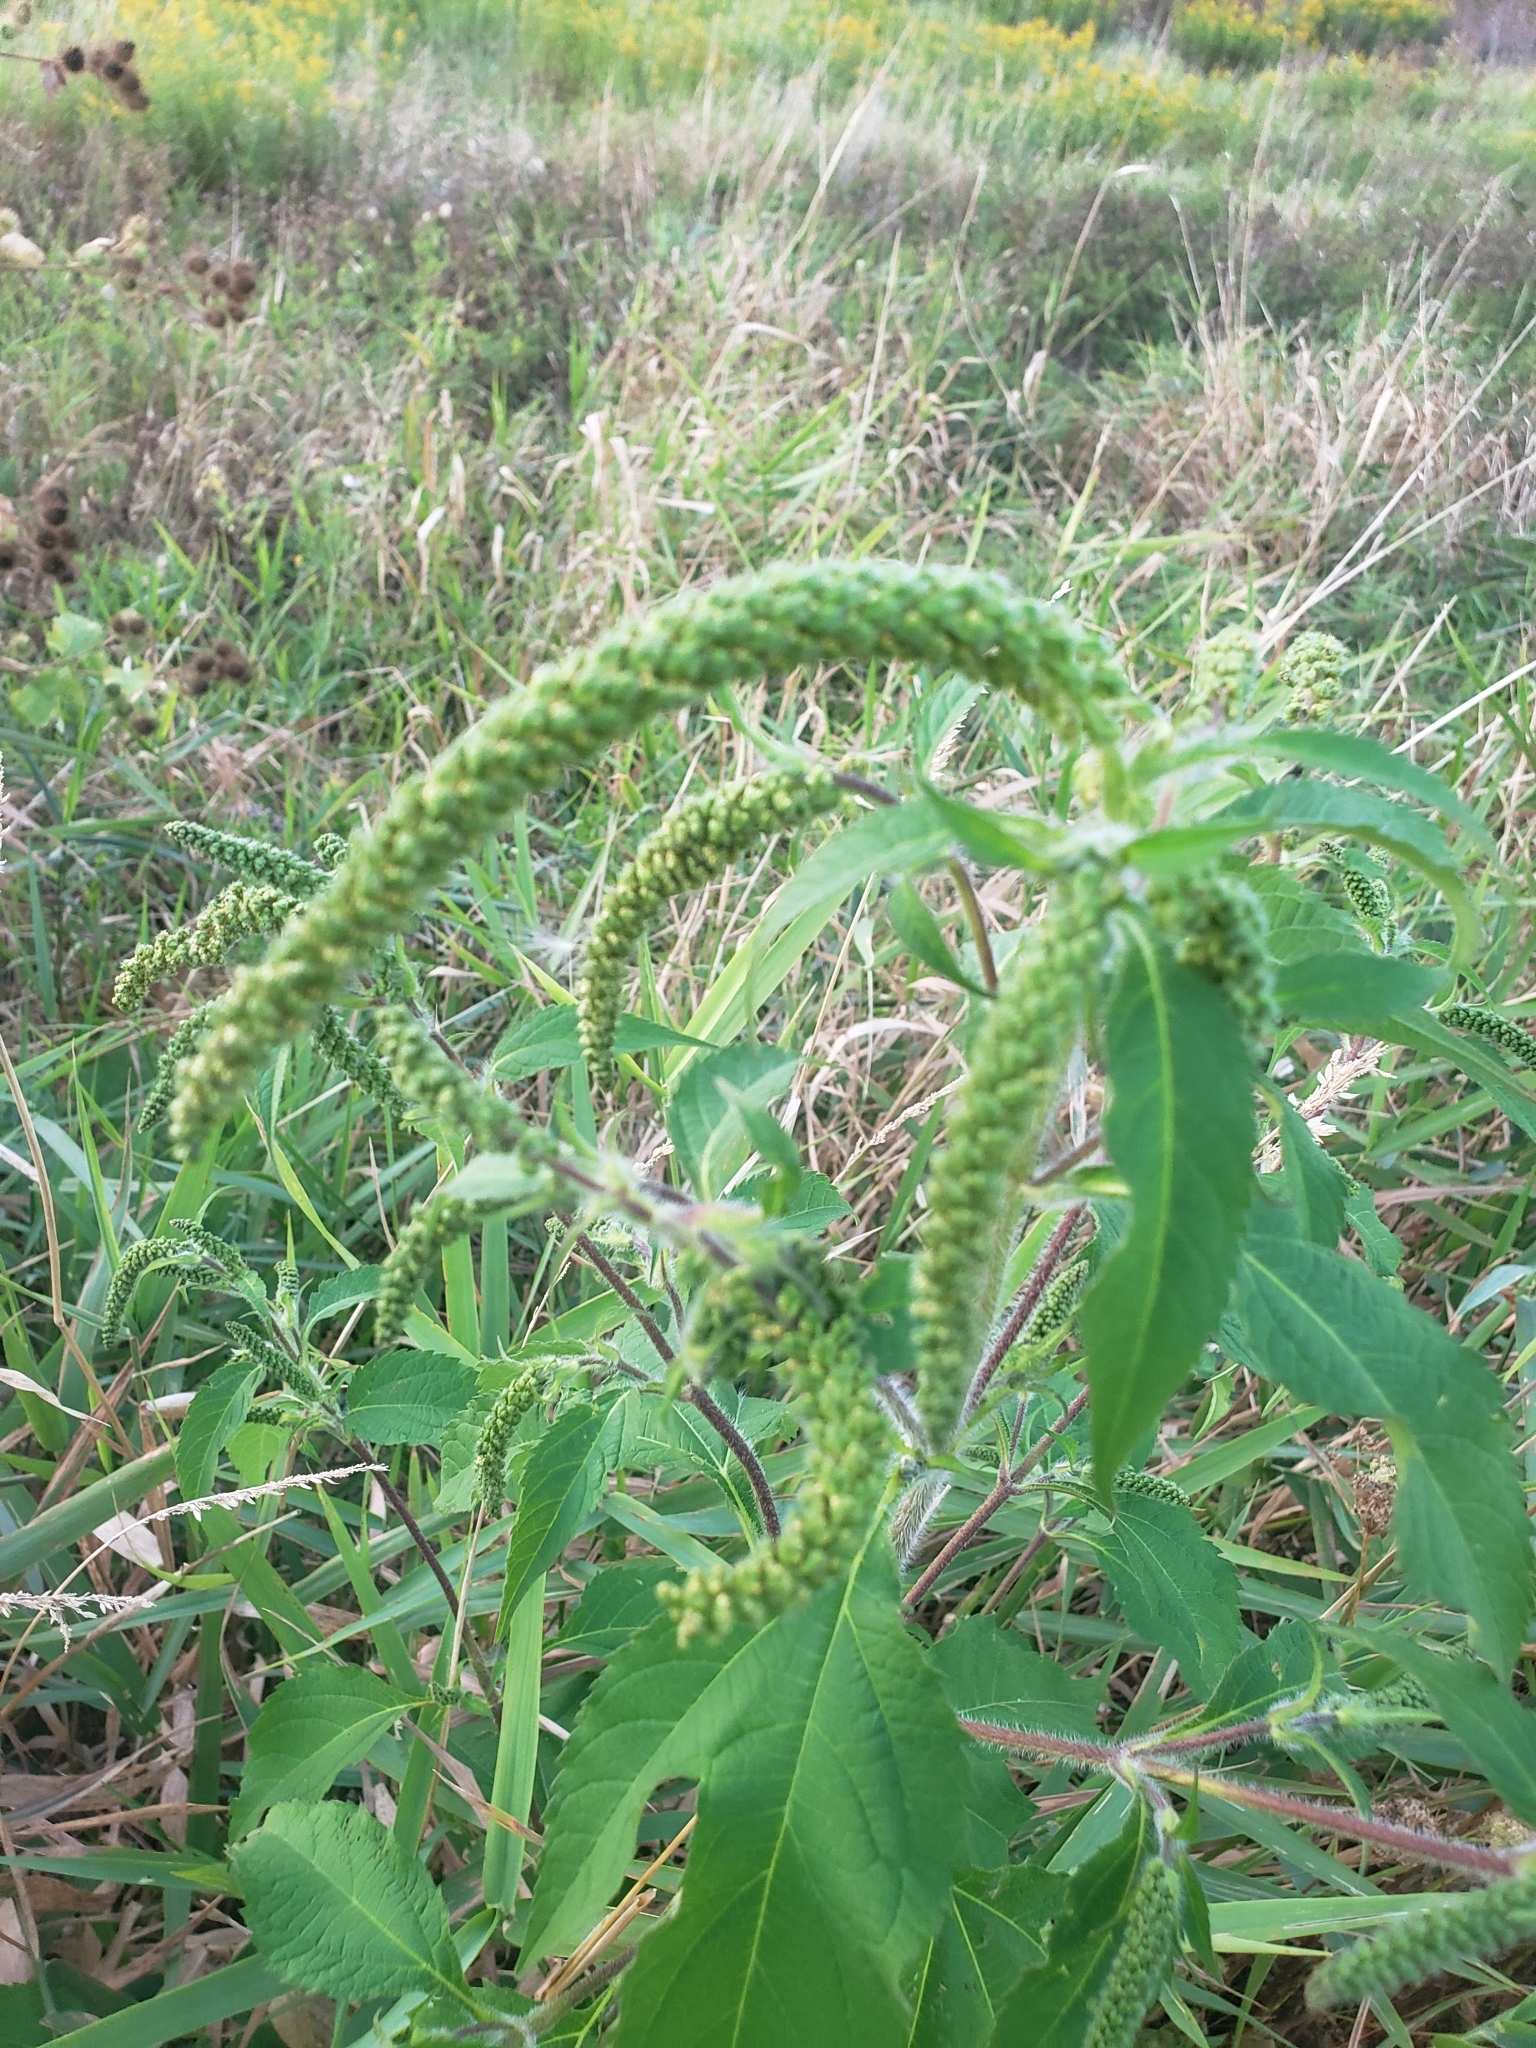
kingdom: Plantae
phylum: Tracheophyta
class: Magnoliopsida
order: Asterales
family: Asteraceae
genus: Ambrosia
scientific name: Ambrosia trifida
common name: Giant ragweed
